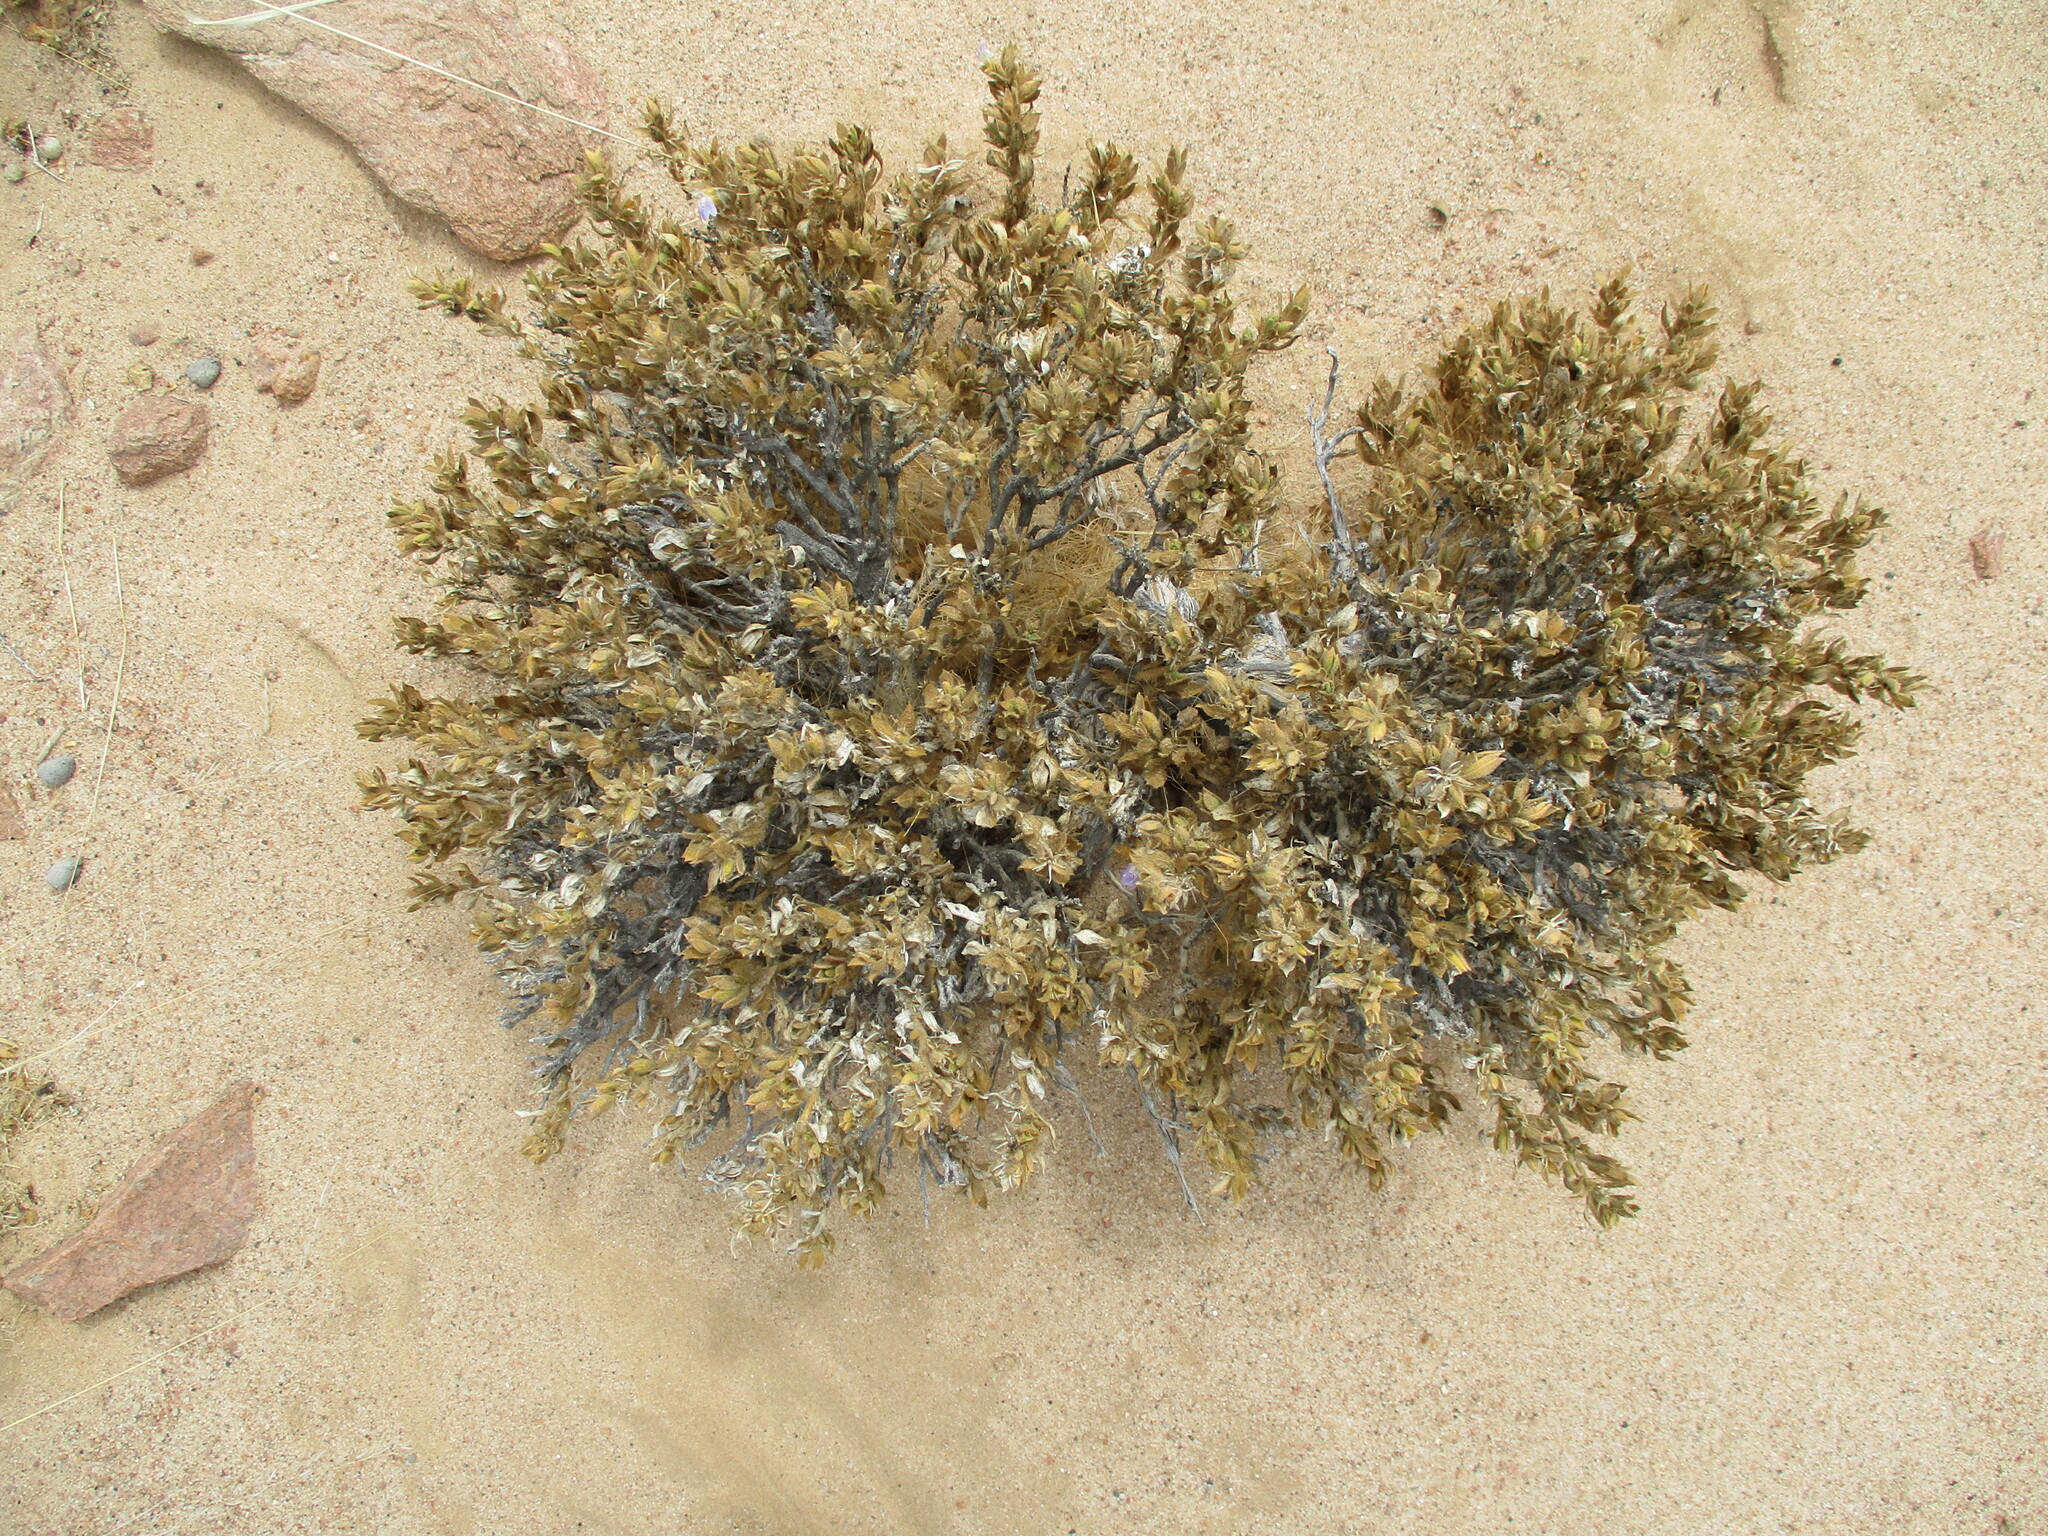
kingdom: Plantae
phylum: Tracheophyta
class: Magnoliopsida
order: Lamiales
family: Acanthaceae
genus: Pogonospermum
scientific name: Pogonospermum
